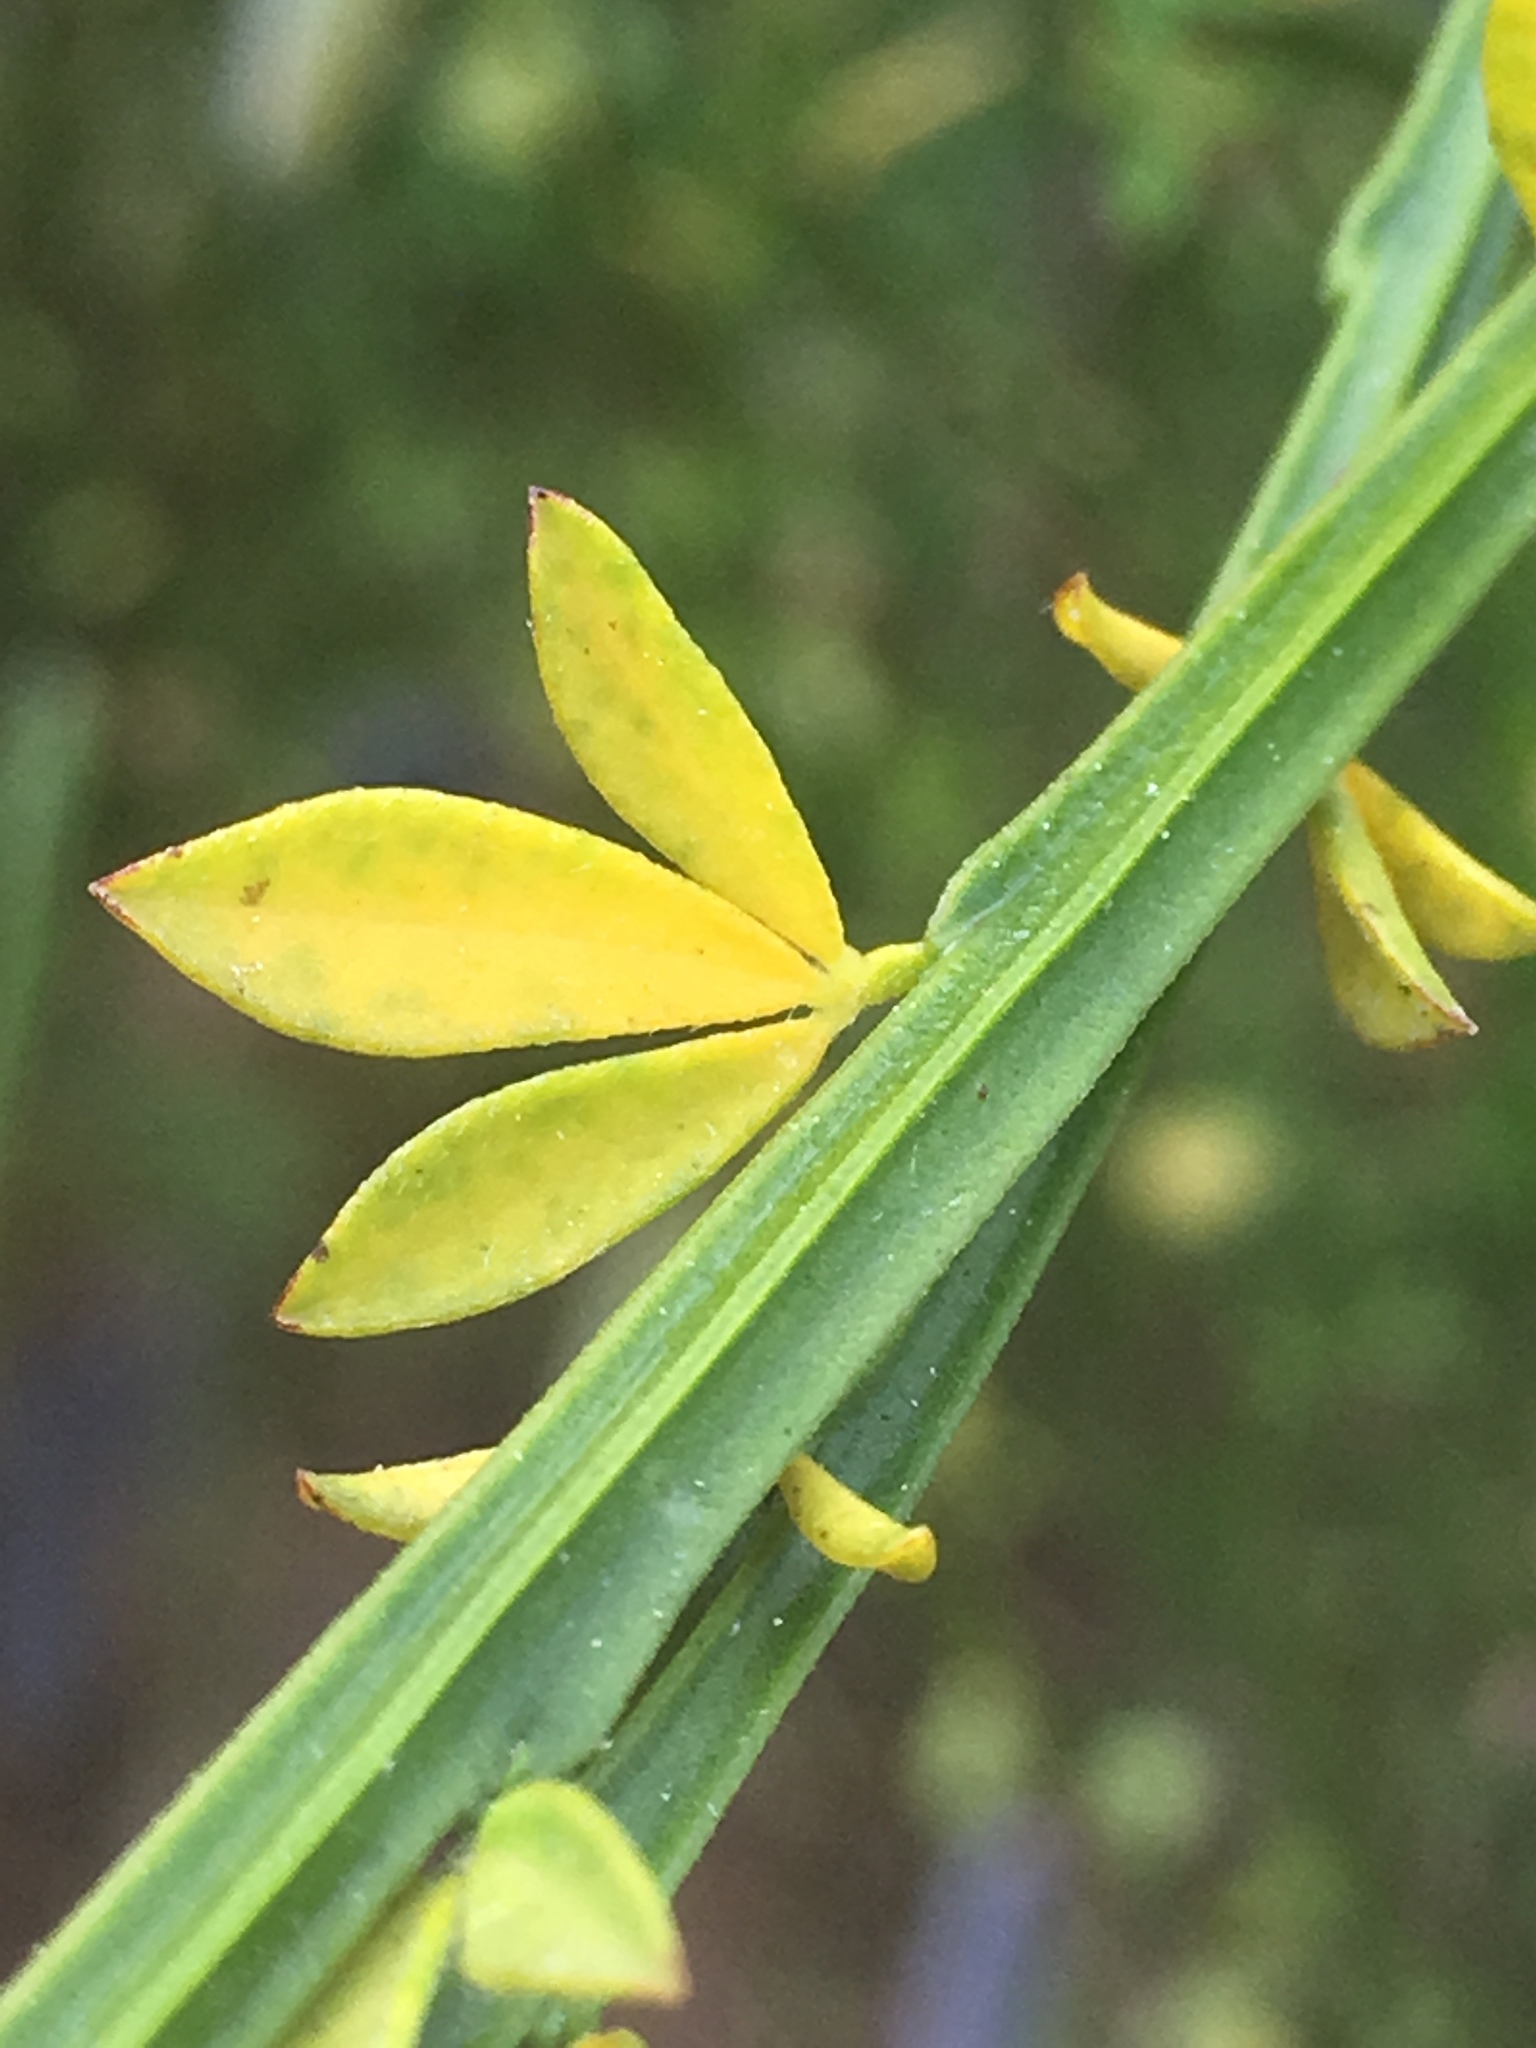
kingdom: Plantae
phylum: Tracheophyta
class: Magnoliopsida
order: Fabales
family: Fabaceae
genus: Cytisus
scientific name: Cytisus scoparius
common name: Scotch broom
